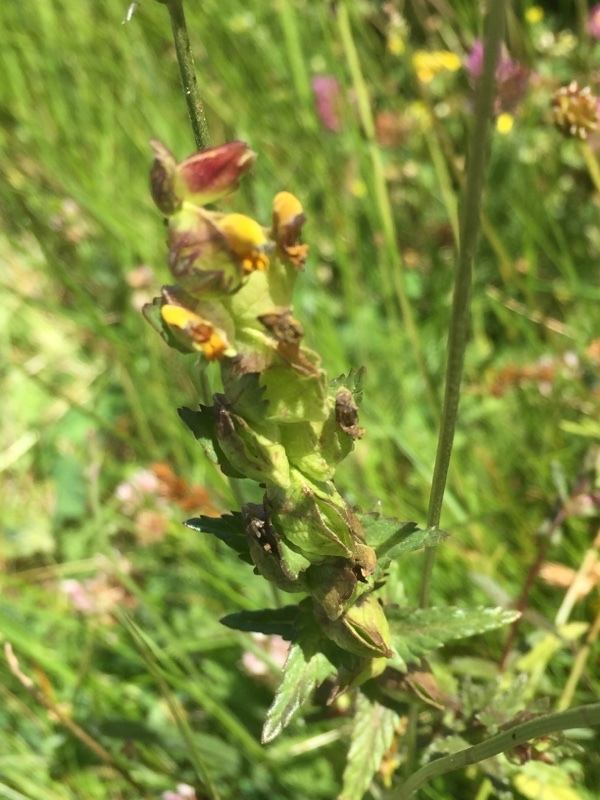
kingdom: Plantae
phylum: Tracheophyta
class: Magnoliopsida
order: Lamiales
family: Orobanchaceae
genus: Rhinanthus
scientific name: Rhinanthus minor
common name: Yellow-rattle
